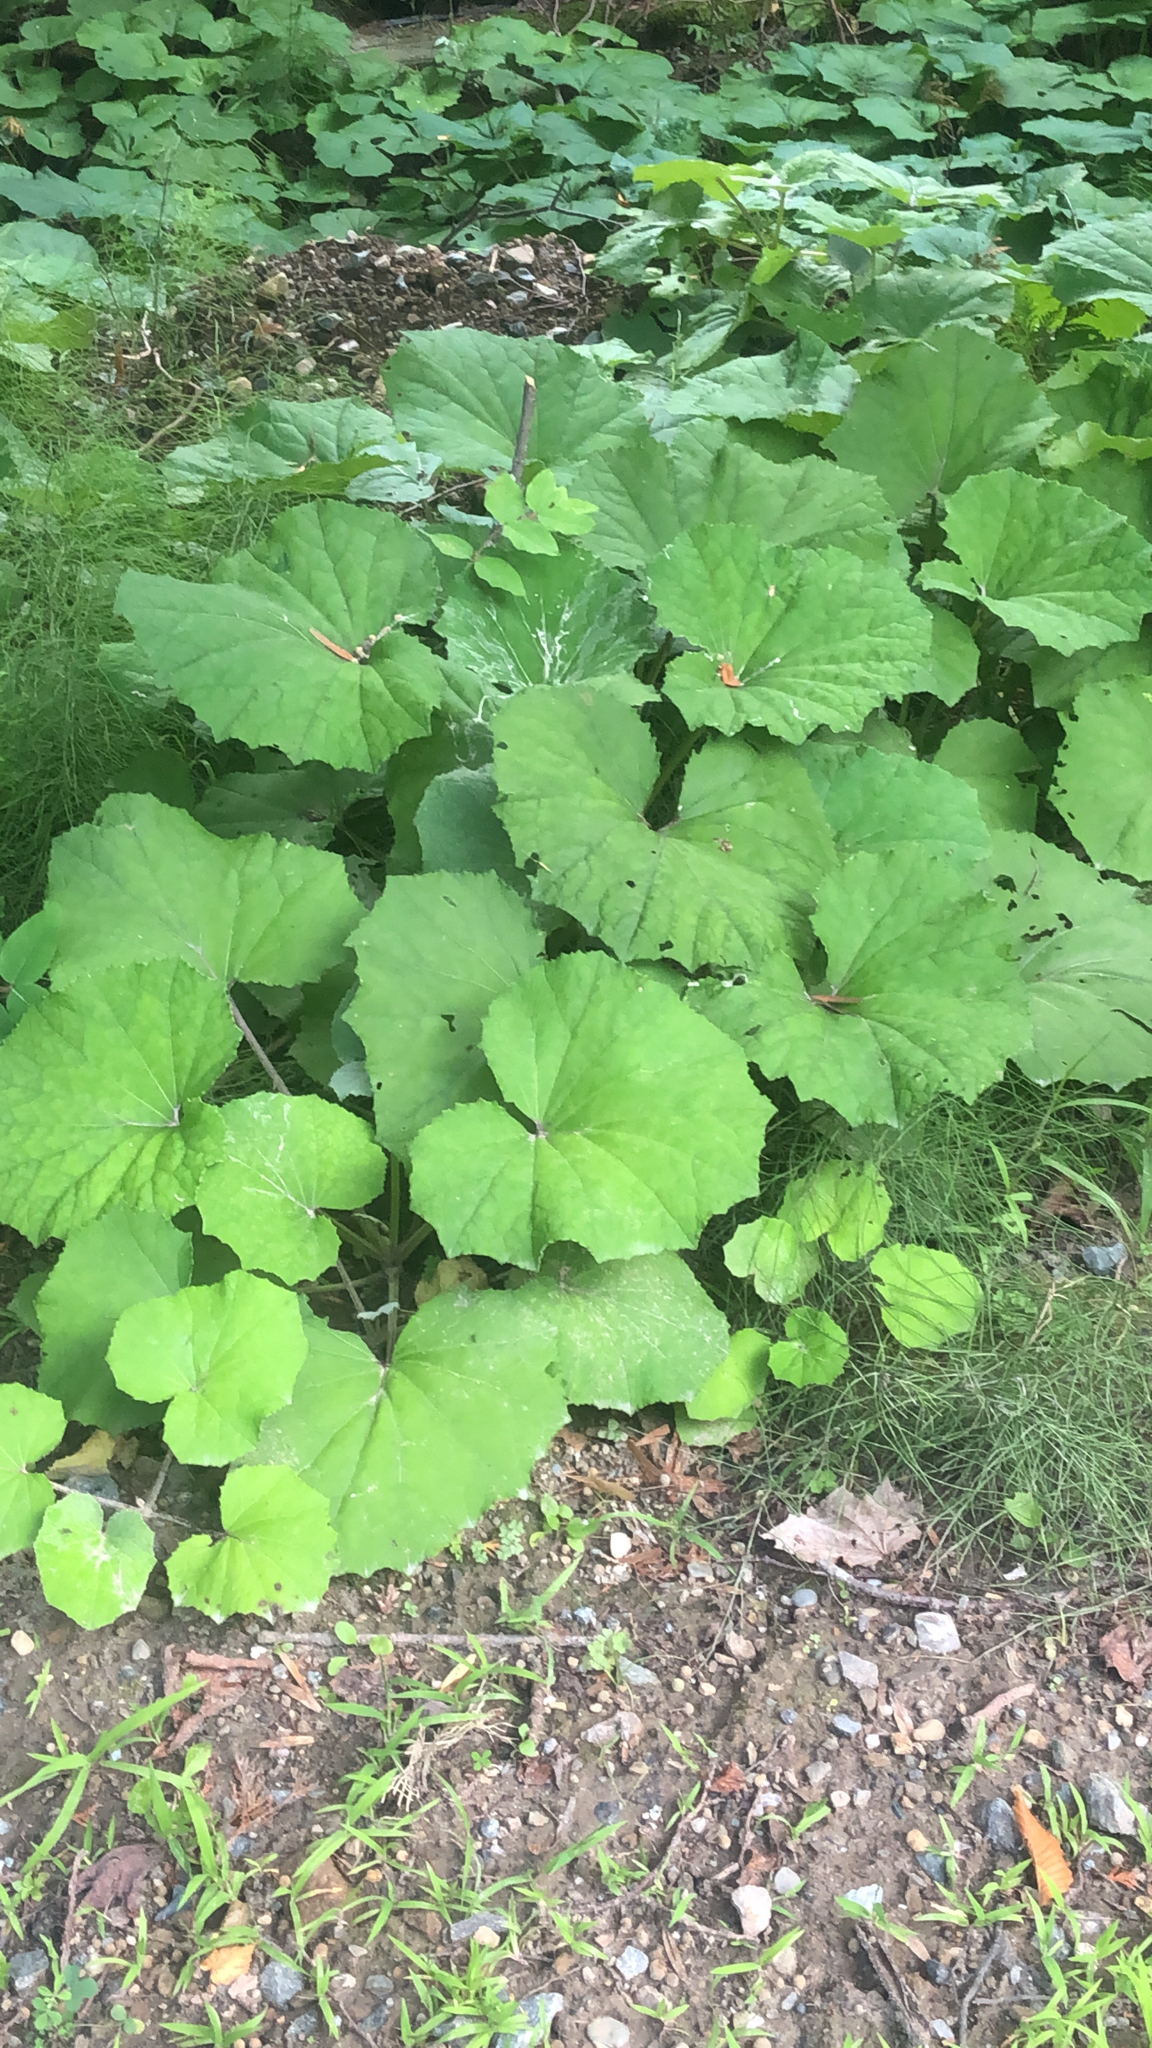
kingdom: Plantae
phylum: Tracheophyta
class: Magnoliopsida
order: Asterales
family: Asteraceae
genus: Tussilago
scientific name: Tussilago farfara
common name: Coltsfoot
